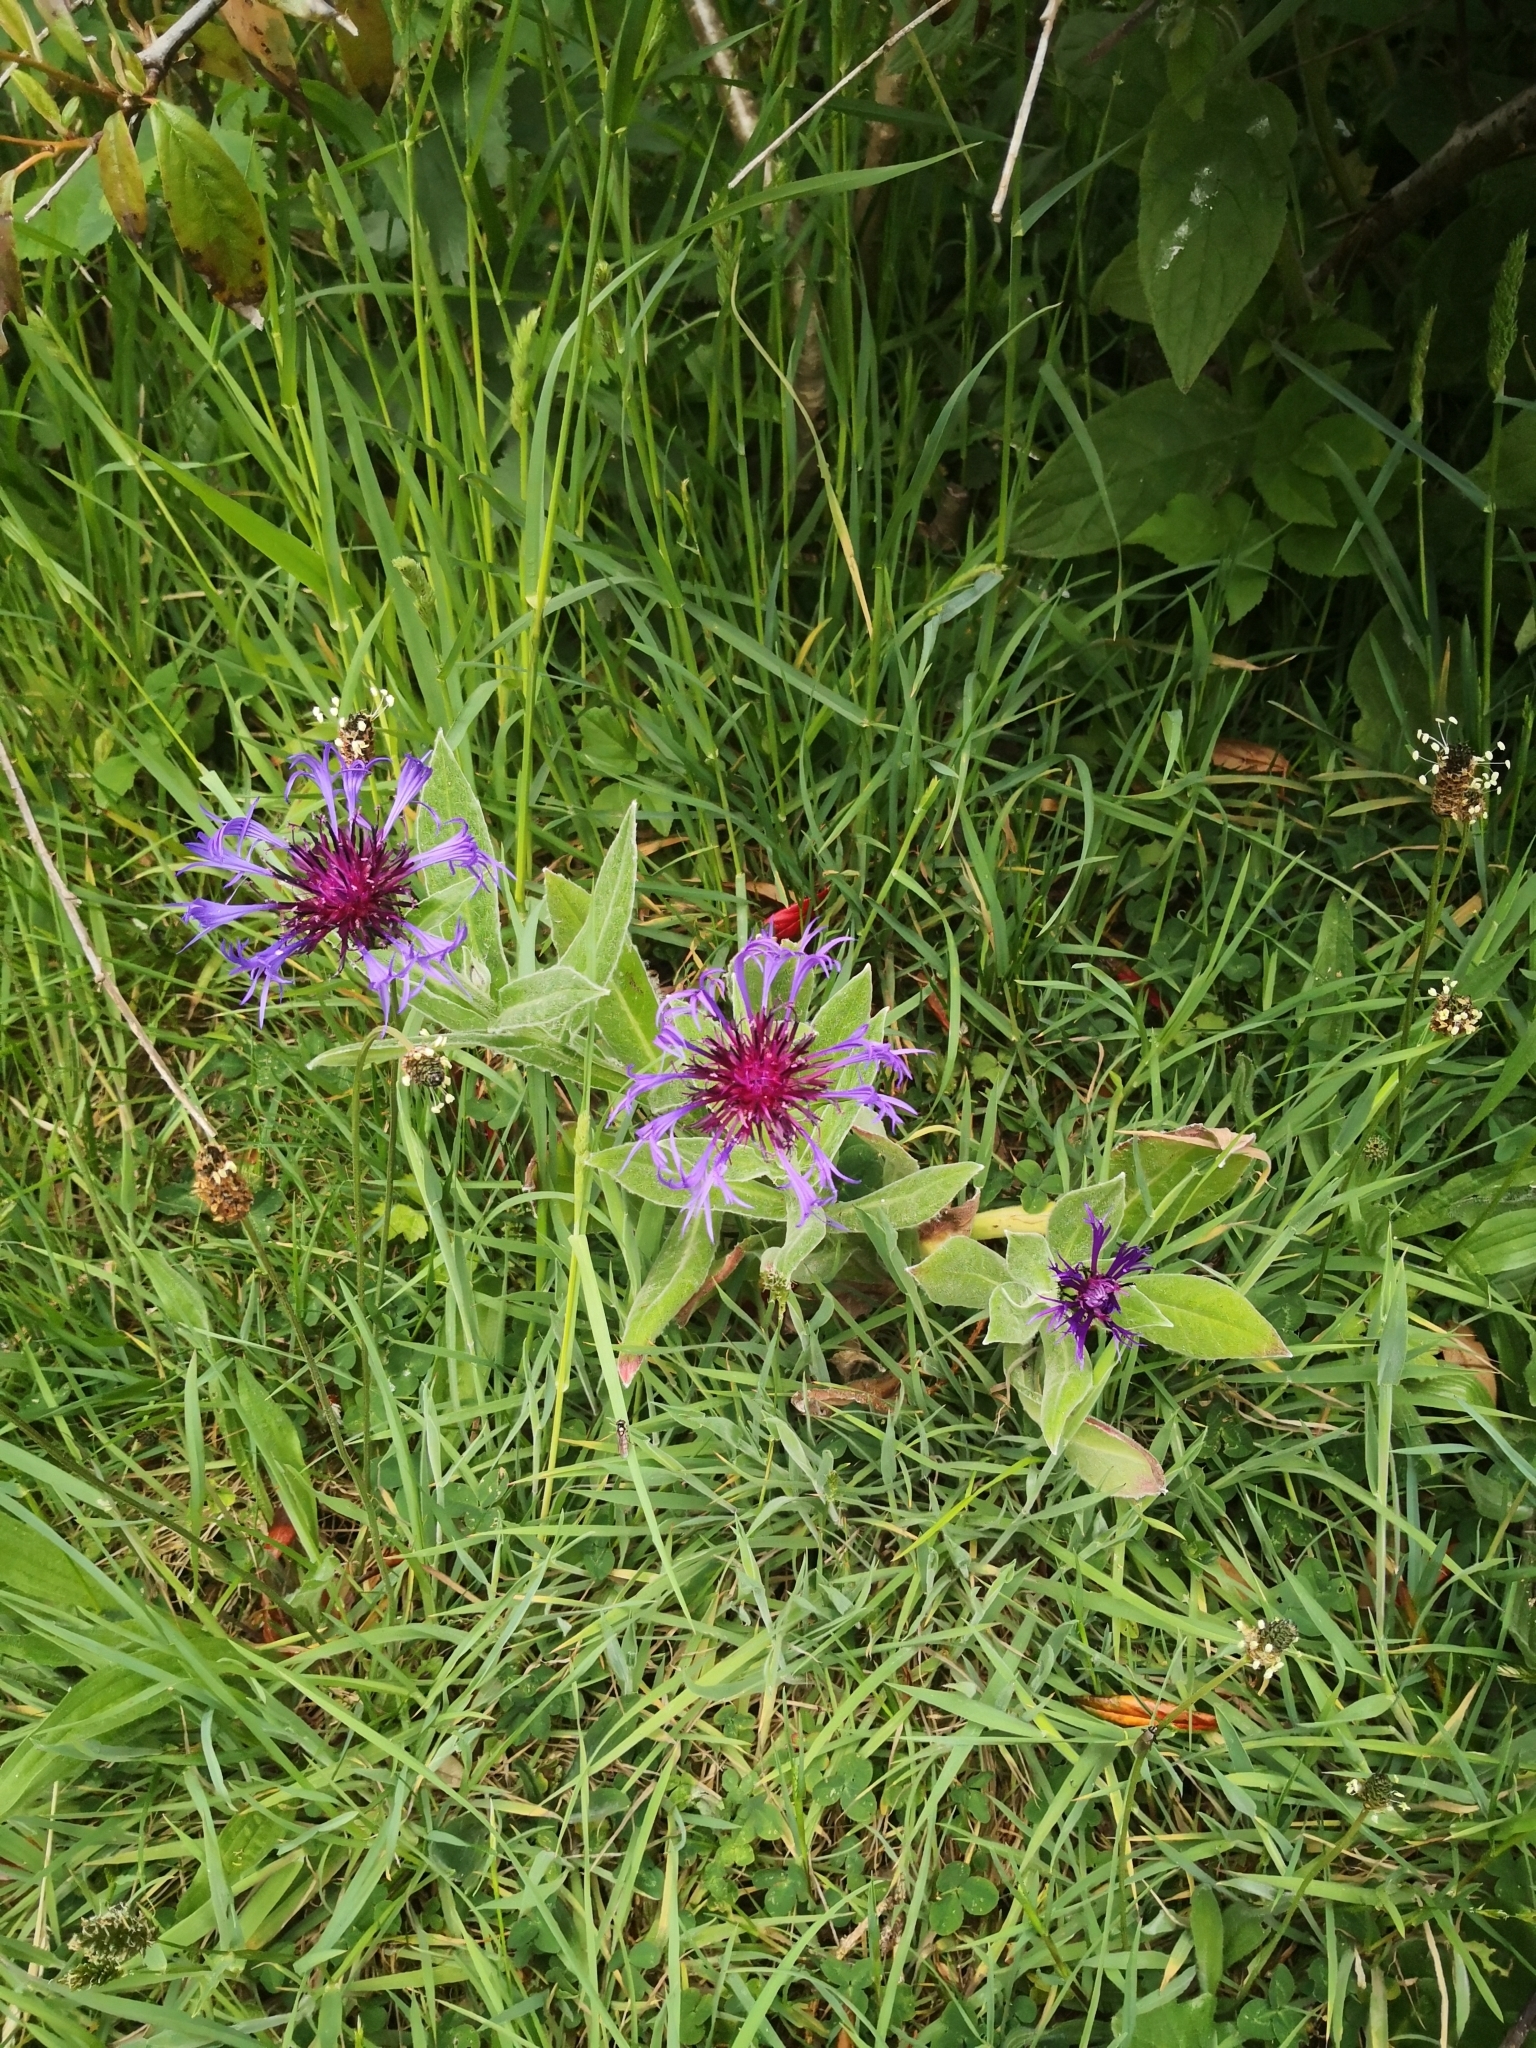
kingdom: Plantae
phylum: Tracheophyta
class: Magnoliopsida
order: Asterales
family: Asteraceae
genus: Centaurea
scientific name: Centaurea montana
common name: Perennial cornflower
